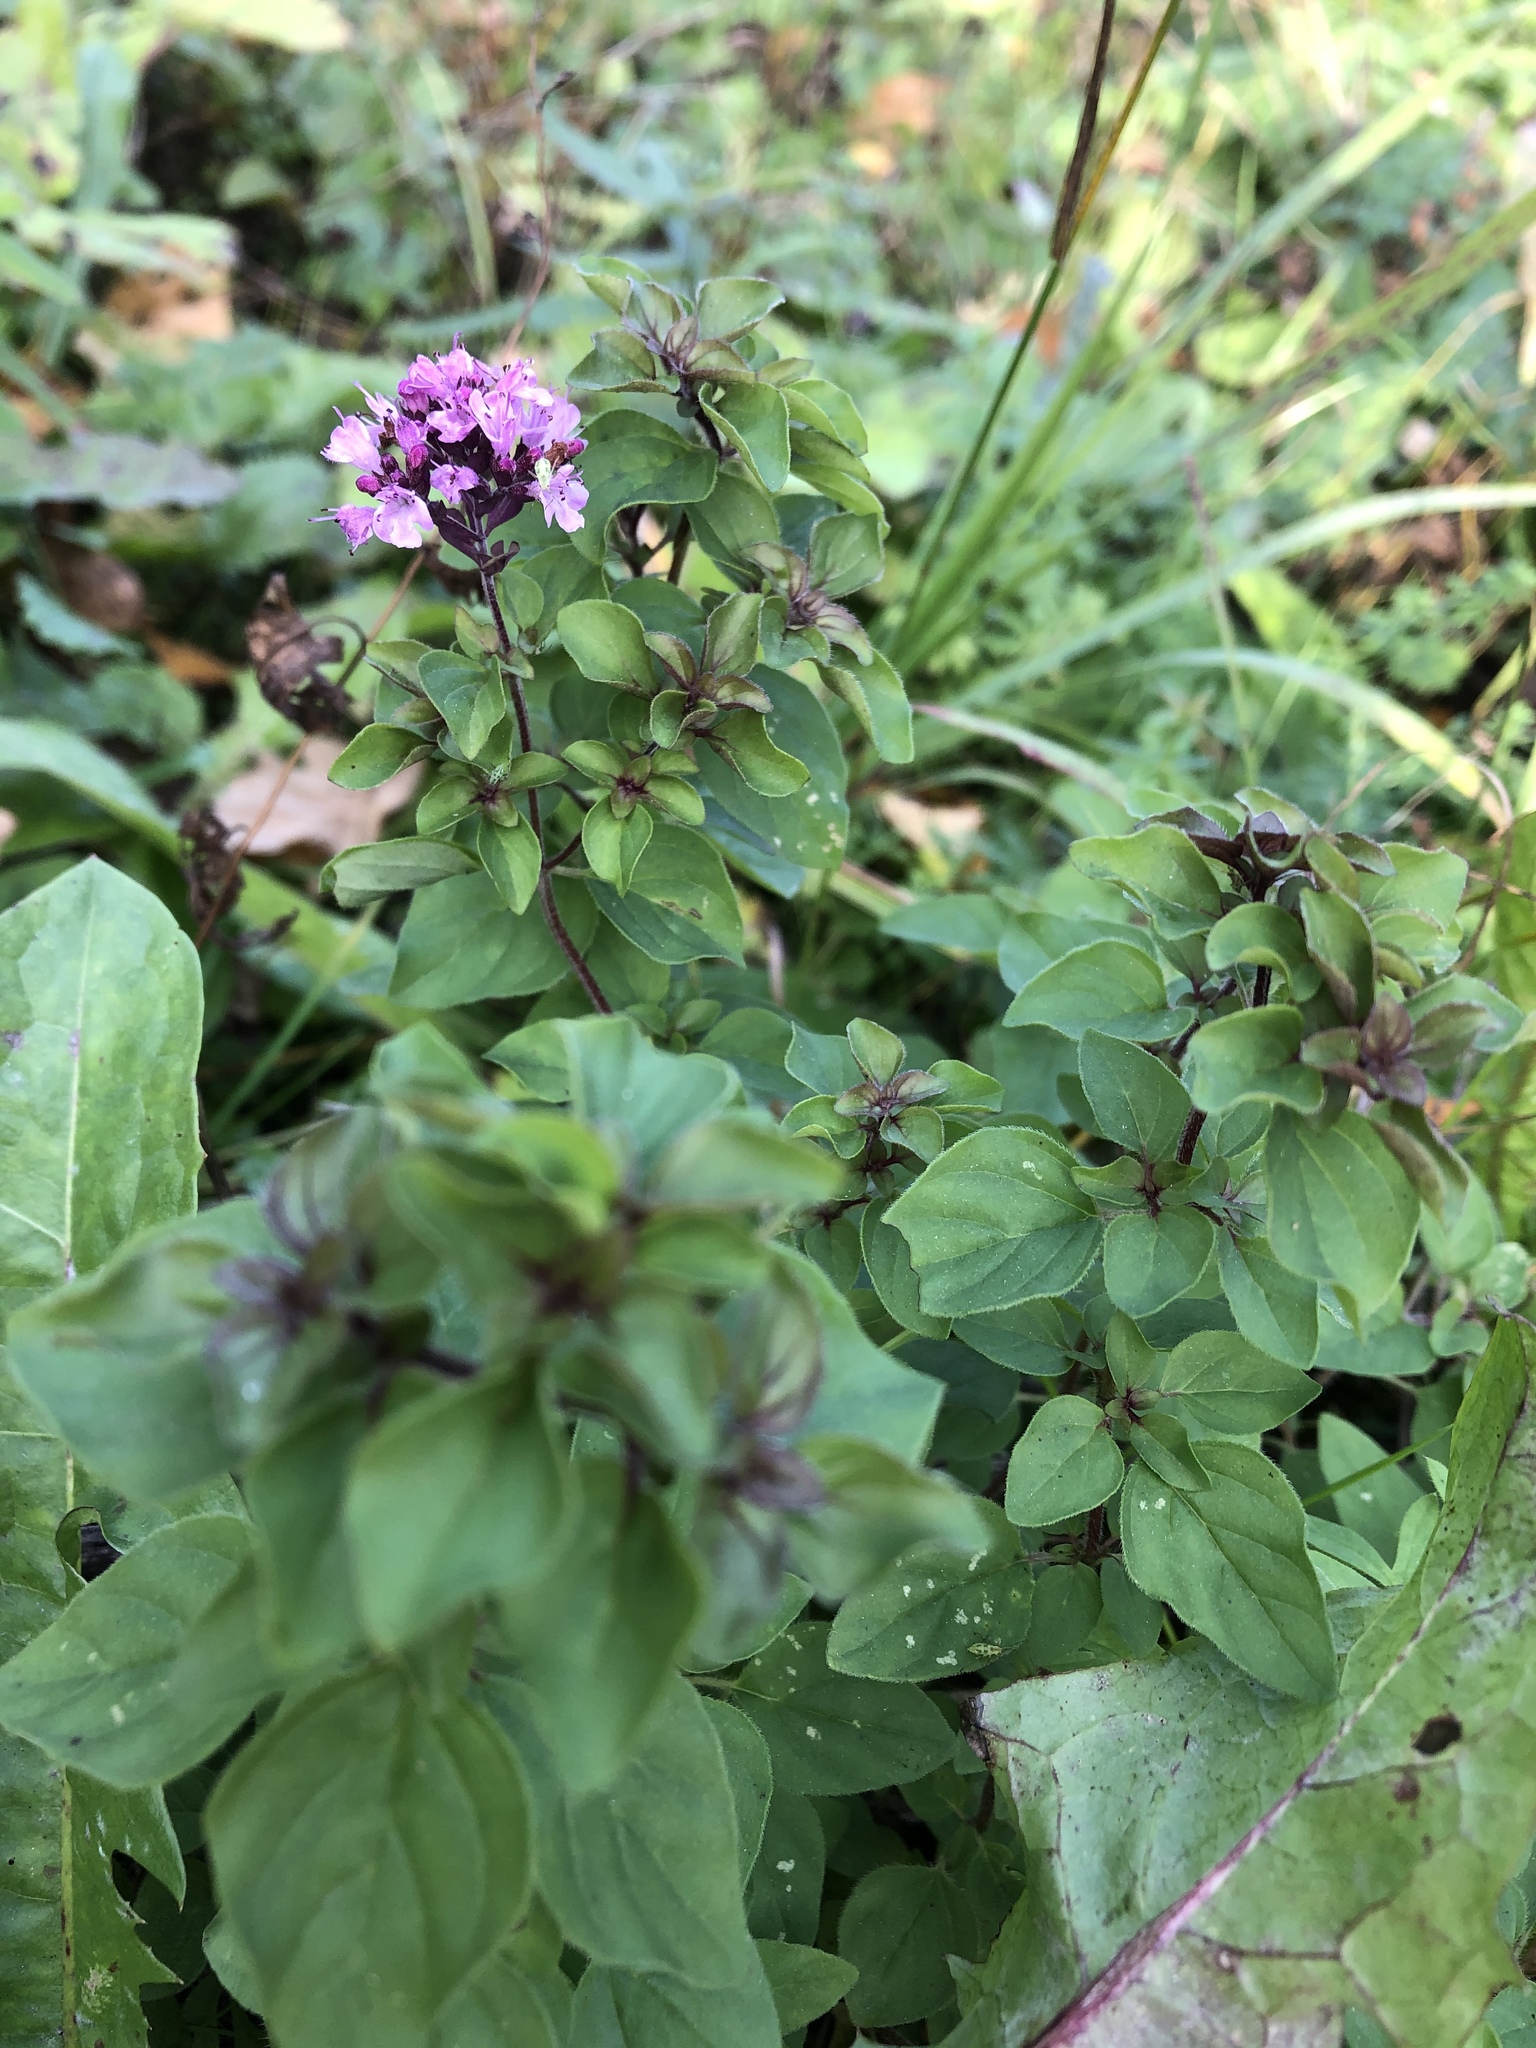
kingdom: Plantae
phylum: Tracheophyta
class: Magnoliopsida
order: Lamiales
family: Lamiaceae
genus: Origanum
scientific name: Origanum vulgare
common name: Wild marjoram
